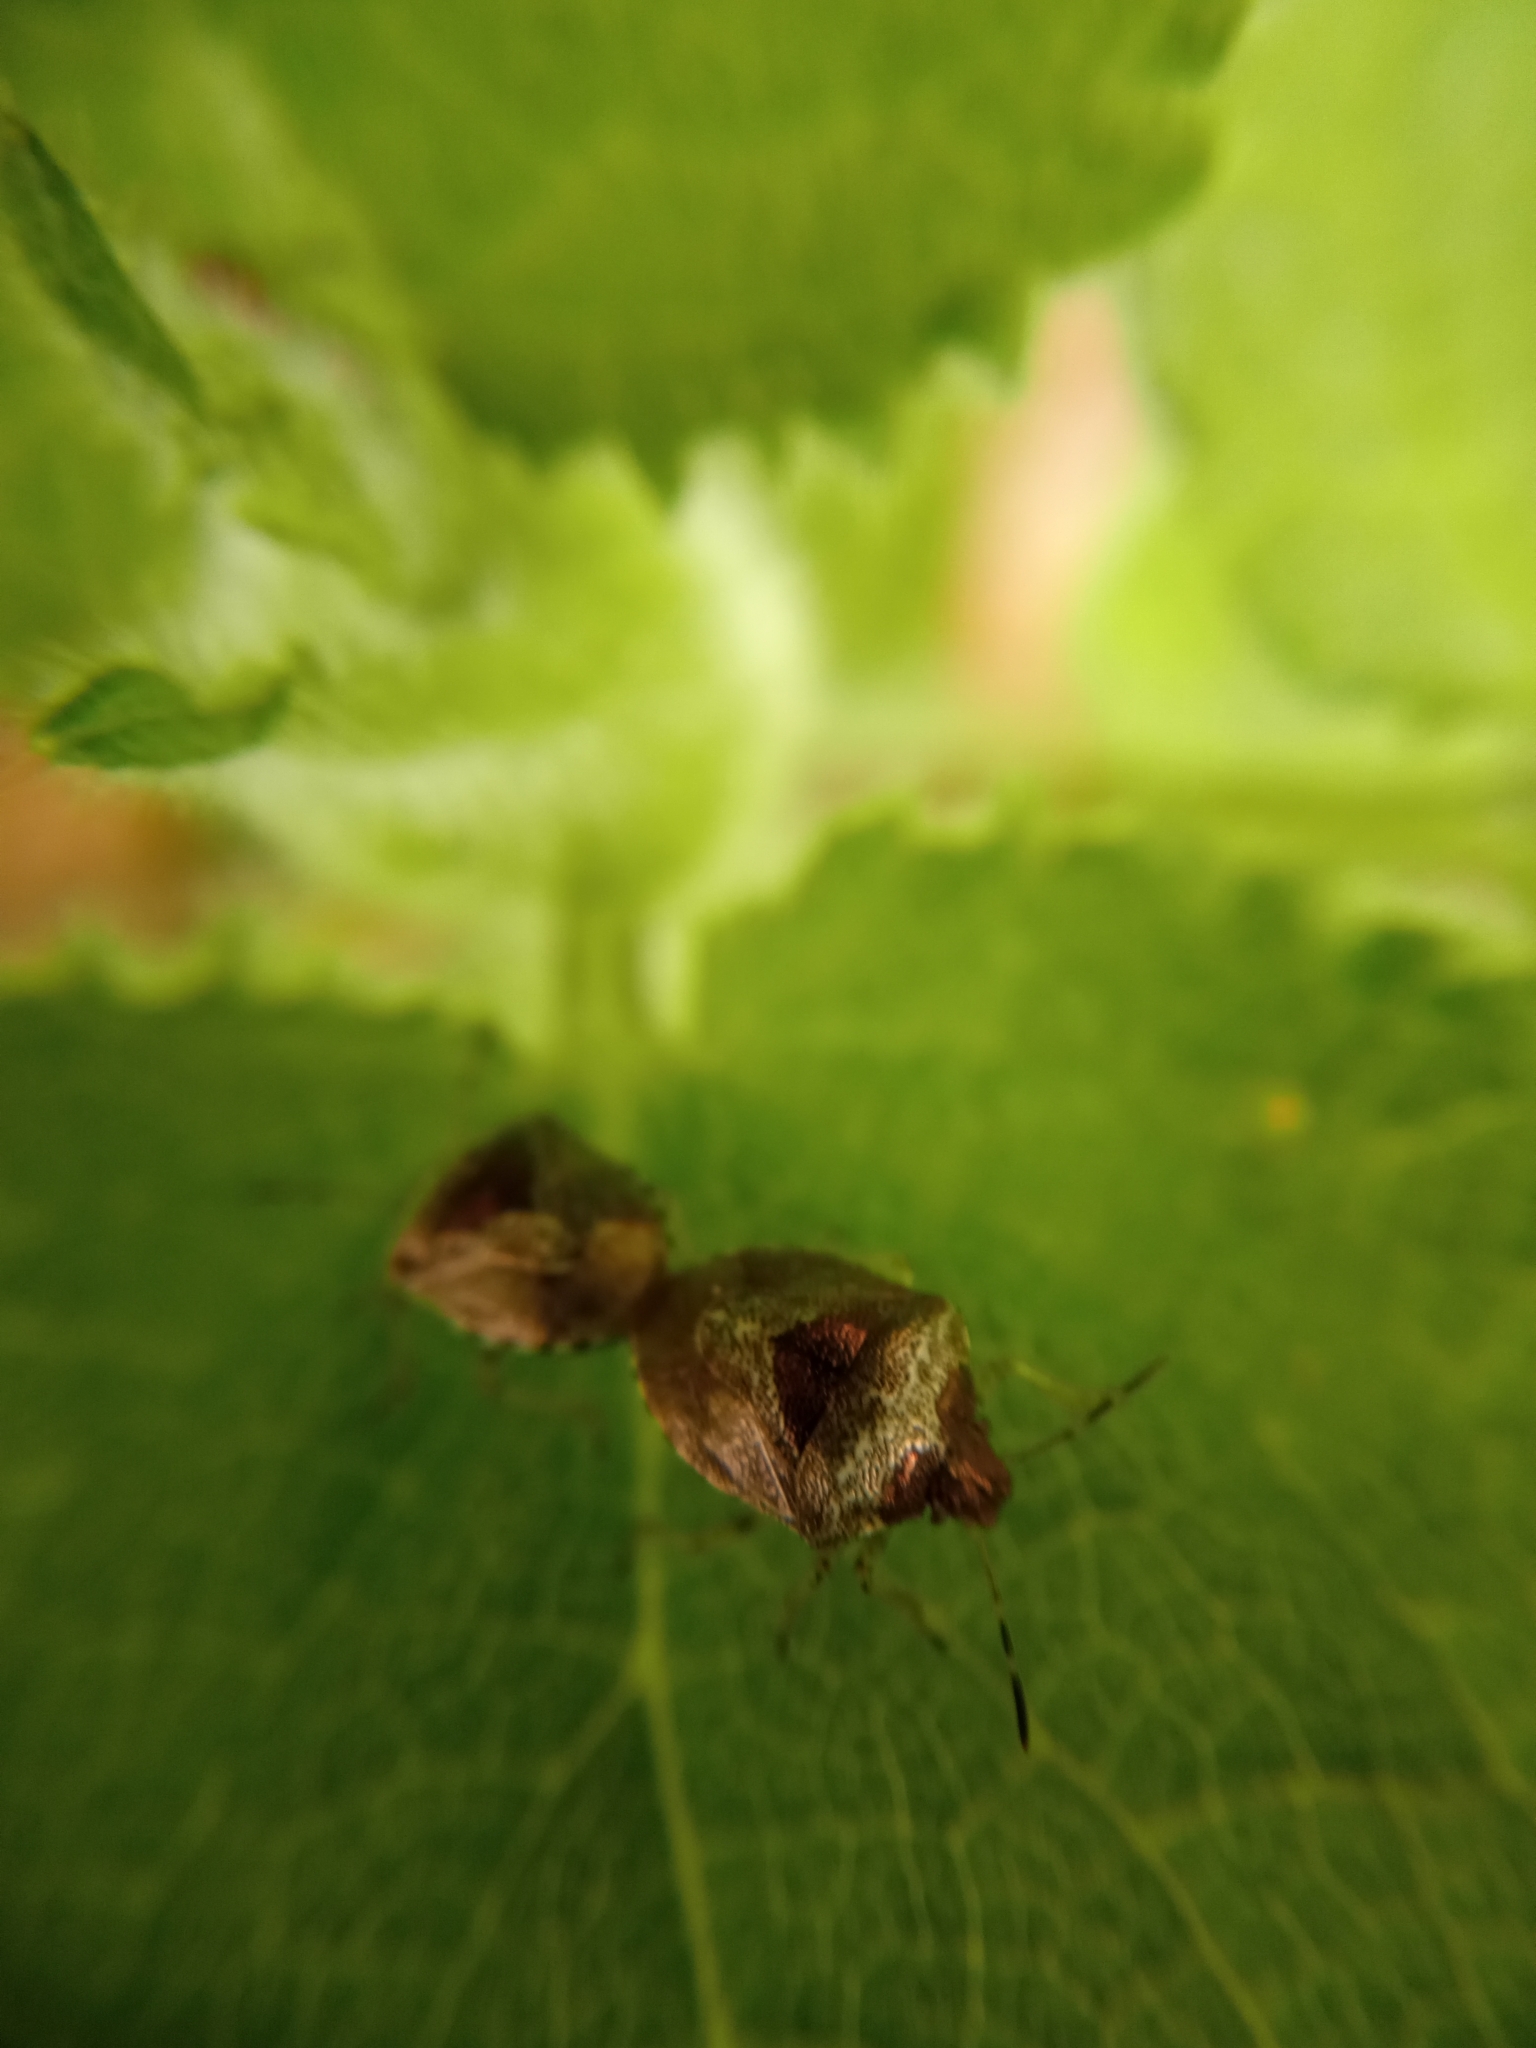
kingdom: Animalia
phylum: Arthropoda
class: Insecta
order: Hemiptera
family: Pentatomidae
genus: Eysarcoris
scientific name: Eysarcoris venustissimus
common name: Woundwort shieldbug
